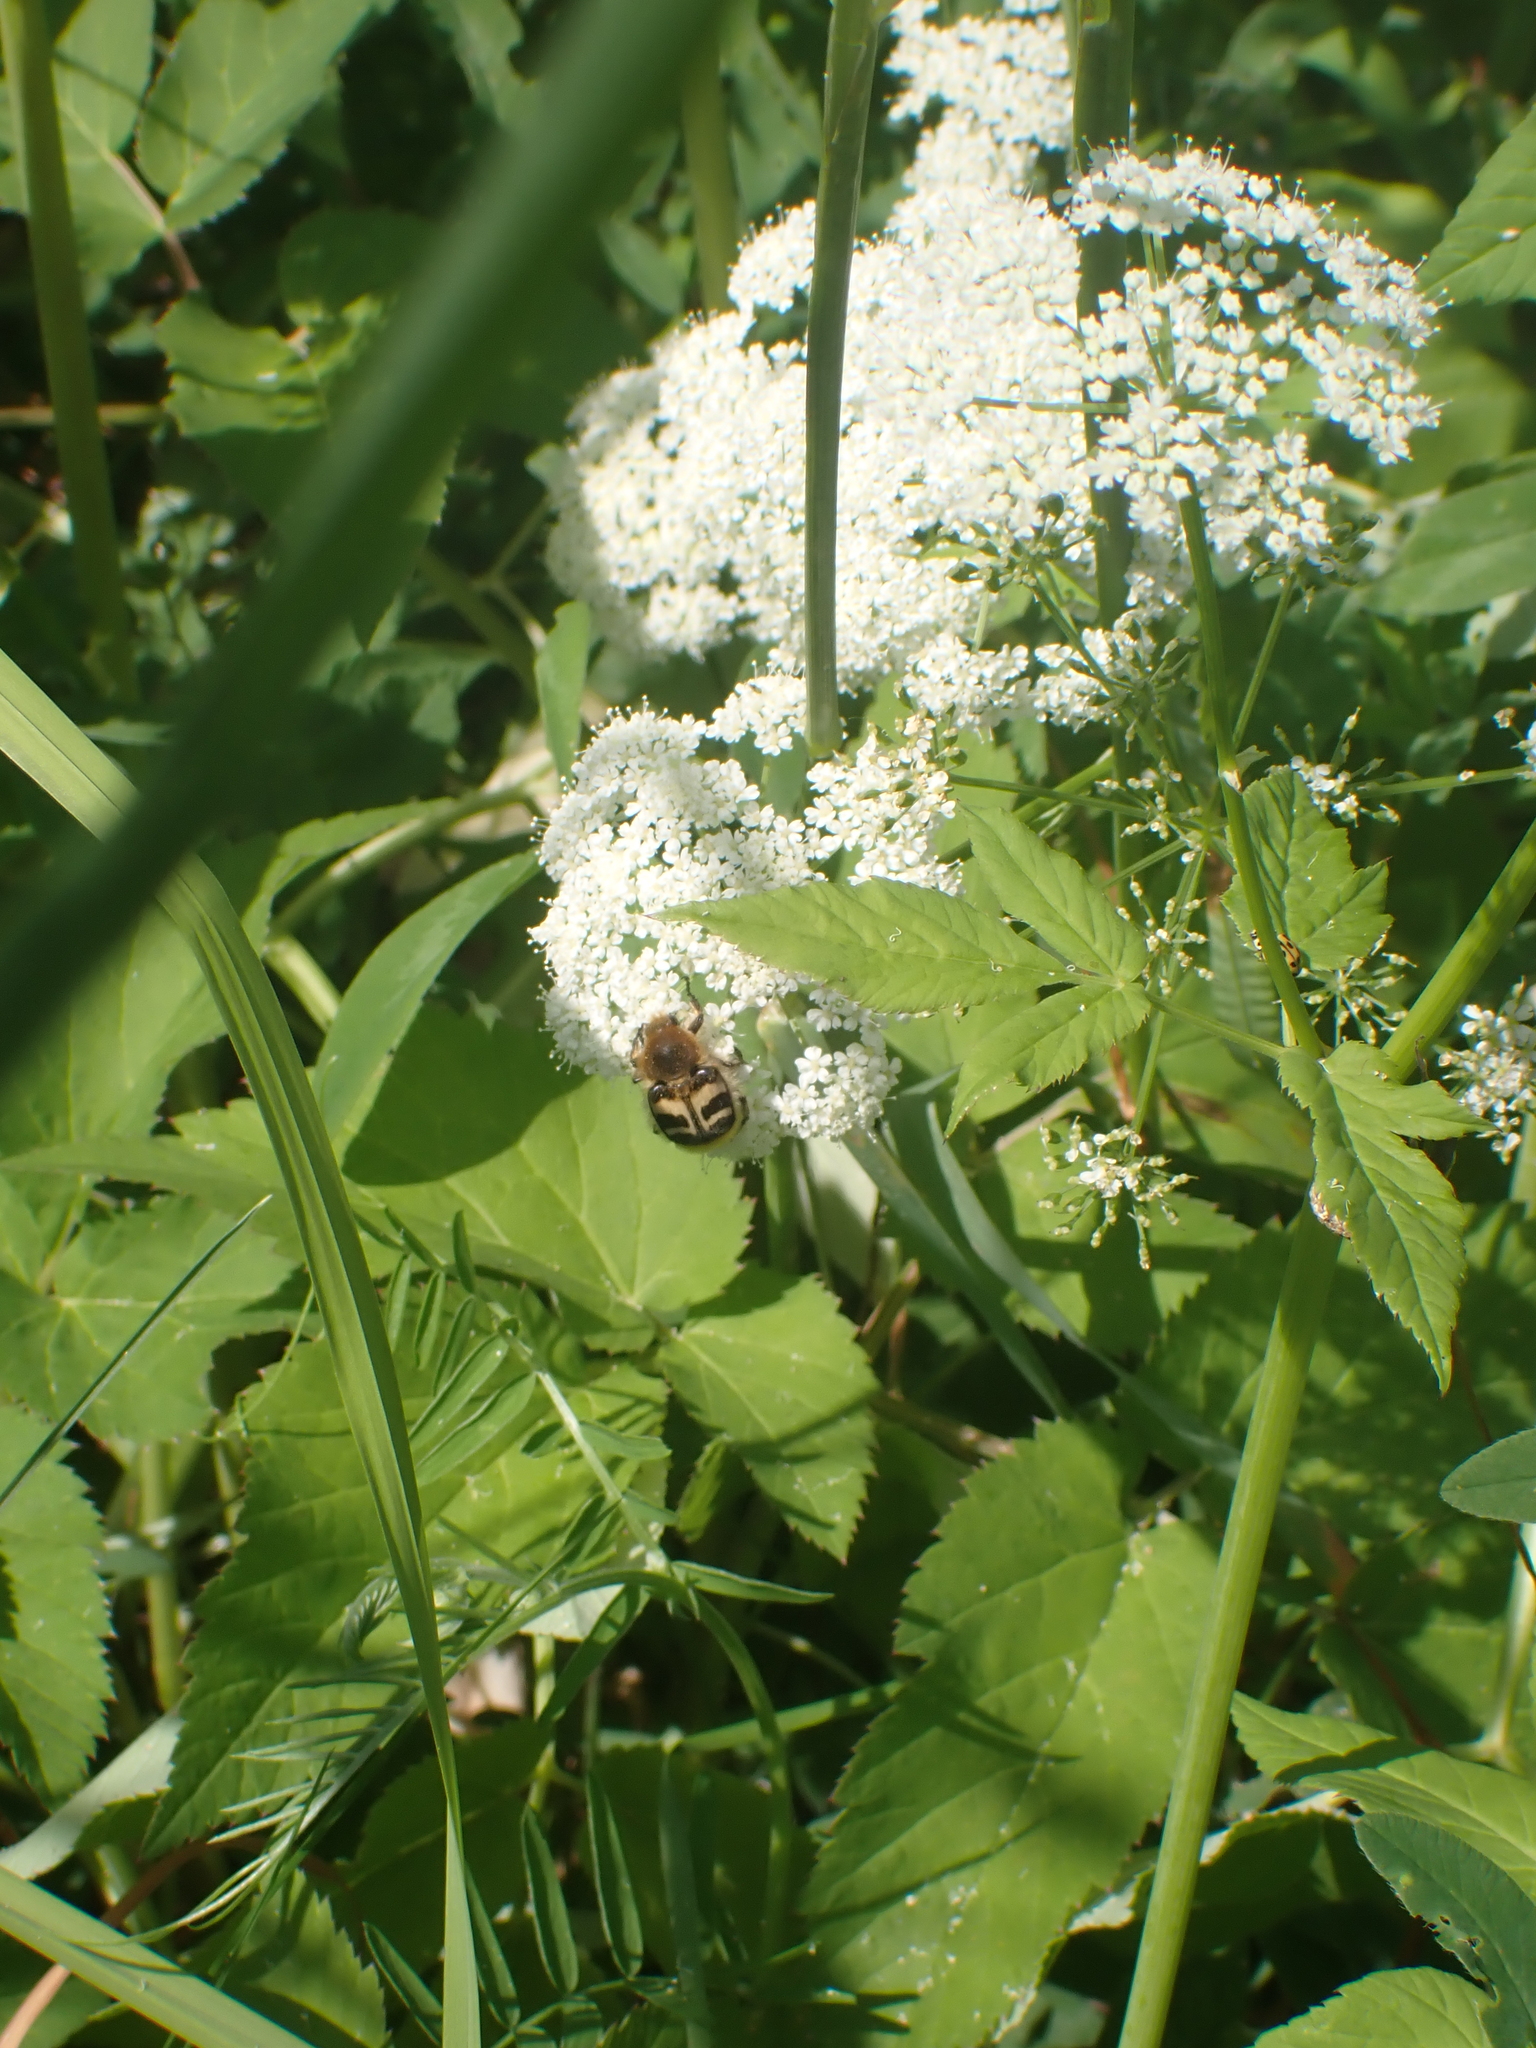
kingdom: Animalia
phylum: Arthropoda
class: Insecta
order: Coleoptera
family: Scarabaeidae
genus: Trichius
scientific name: Trichius fasciatus
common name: Bee beetle
